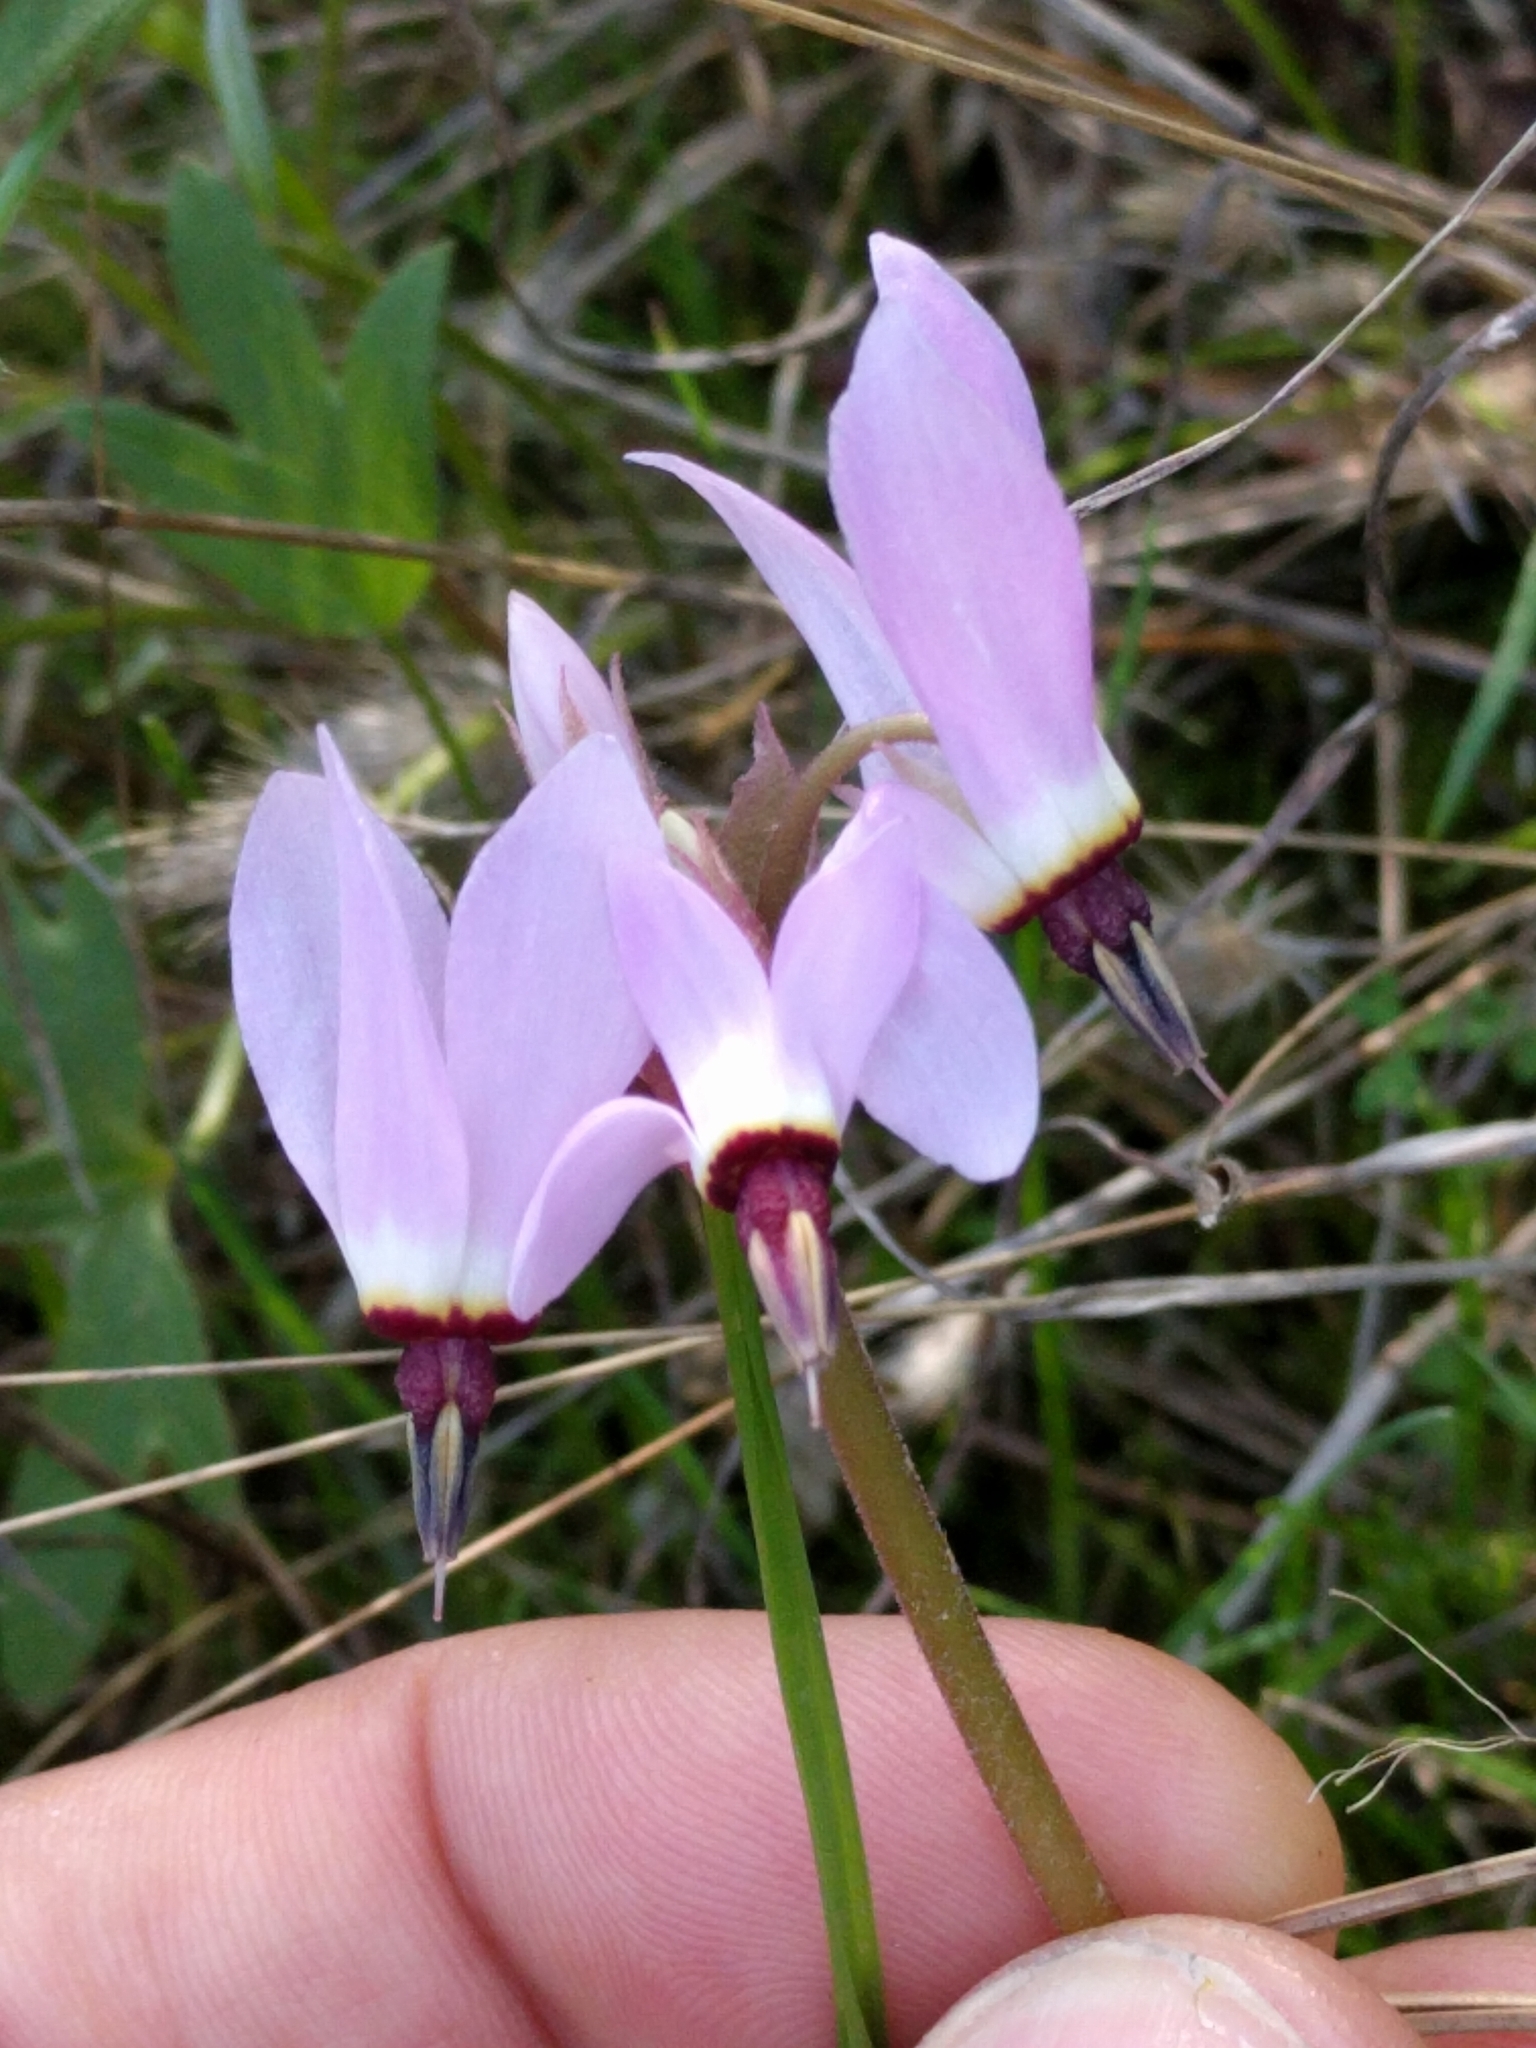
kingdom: Plantae
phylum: Tracheophyta
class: Magnoliopsida
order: Ericales
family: Primulaceae
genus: Dodecatheon
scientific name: Dodecatheon hendersonii
